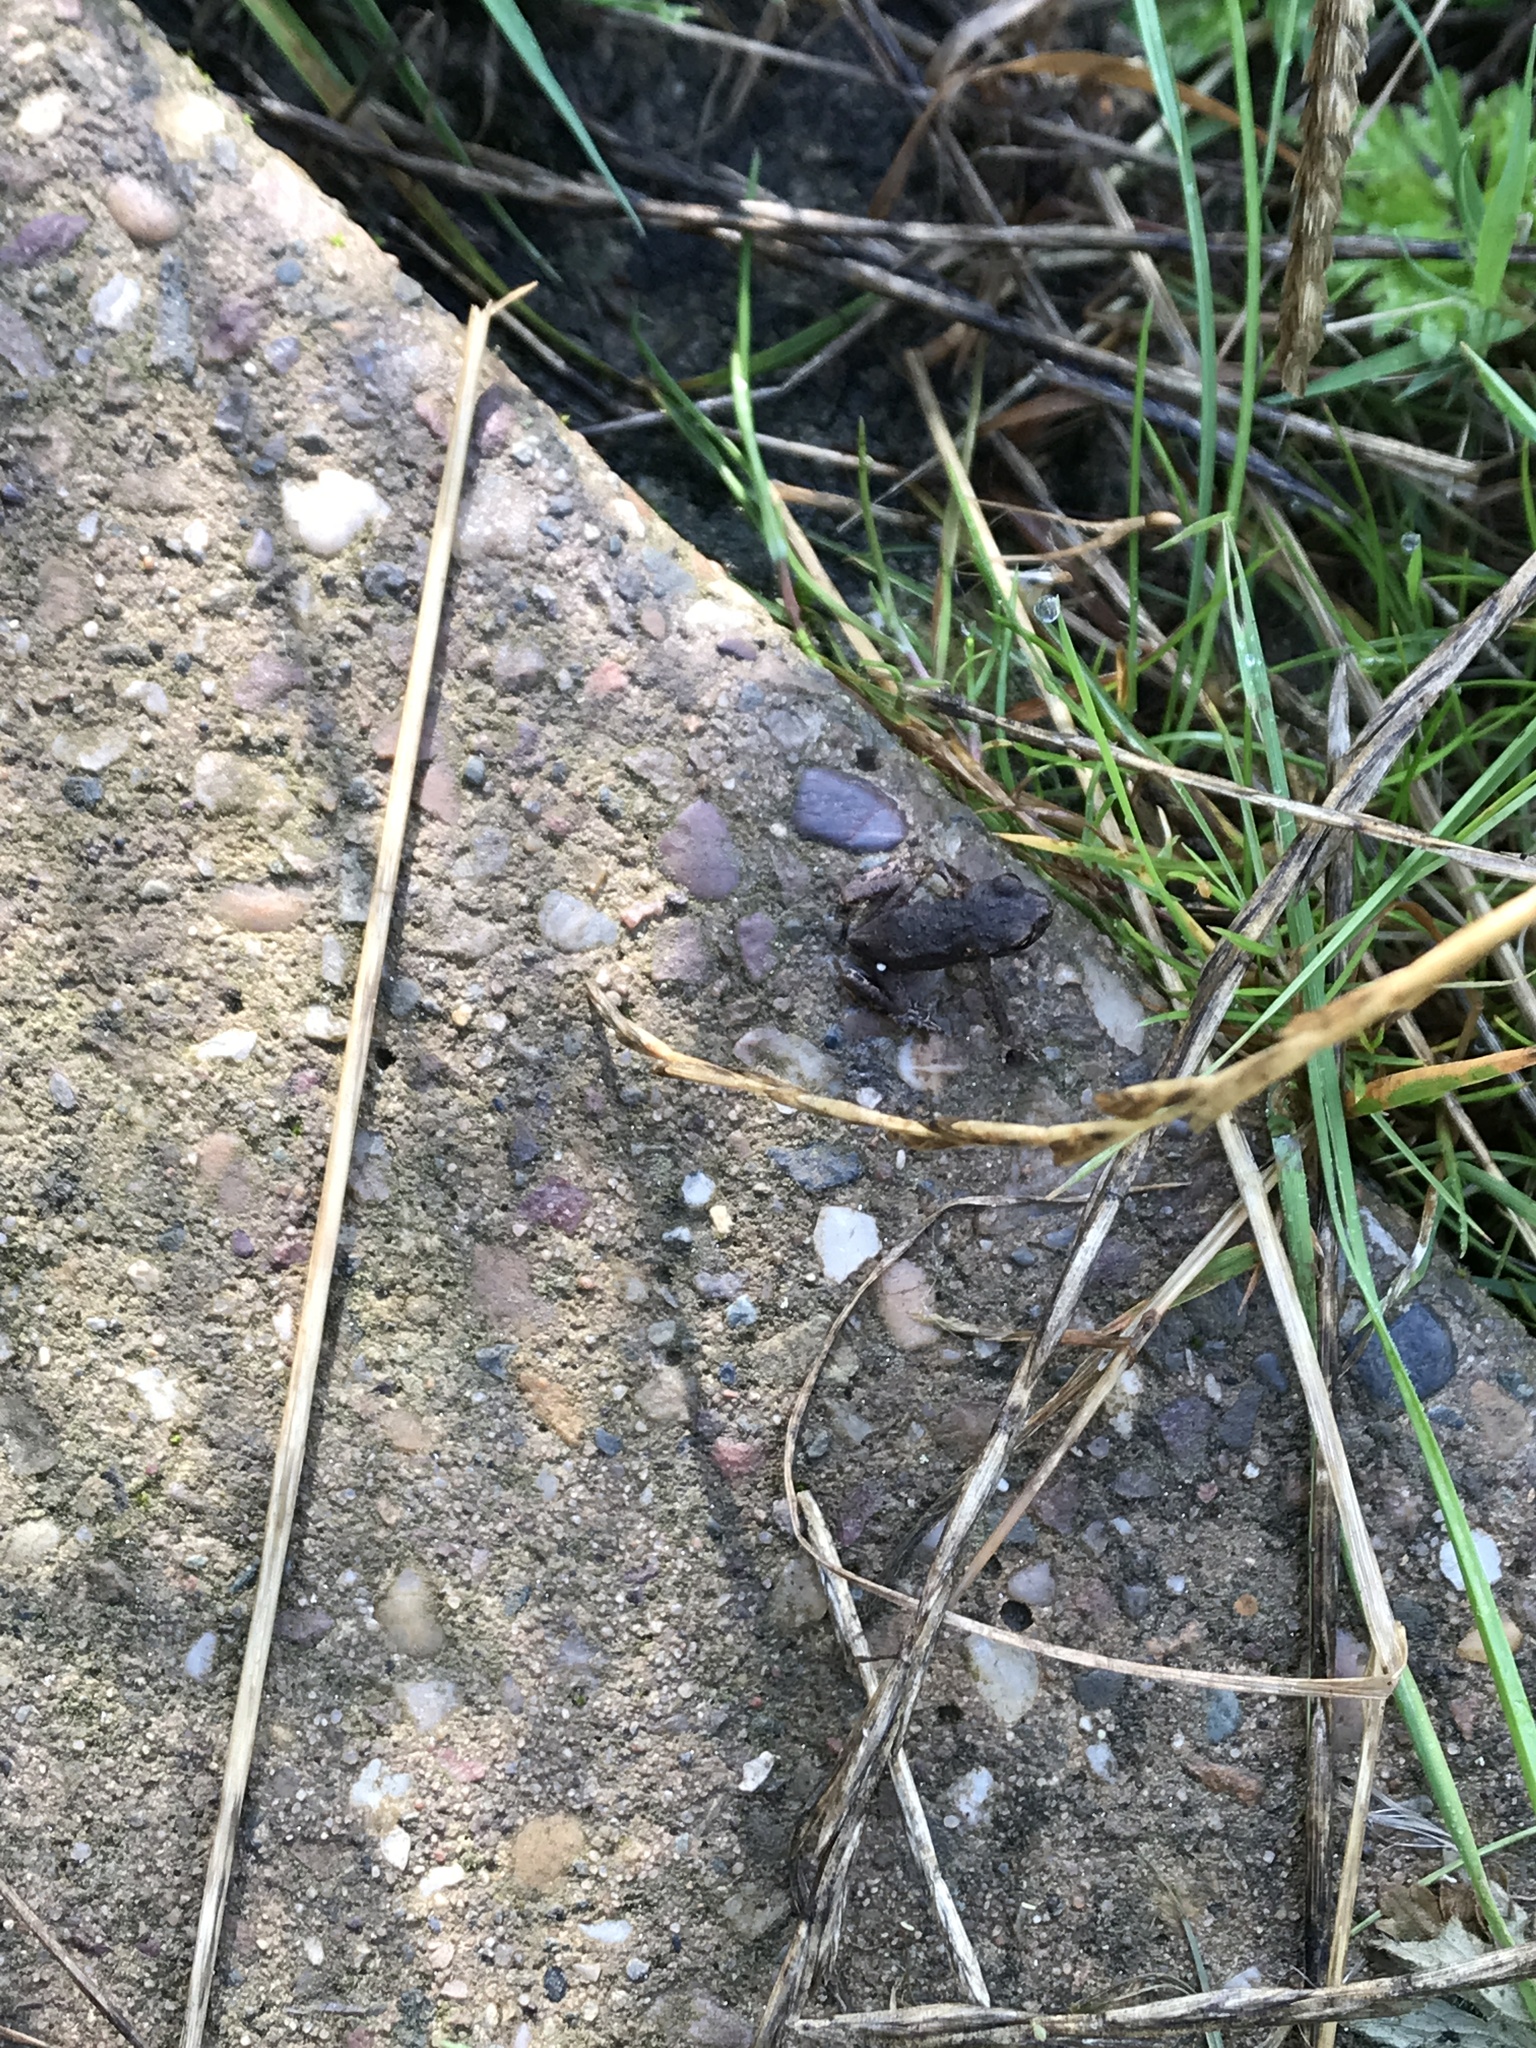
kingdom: Animalia
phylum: Chordata
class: Amphibia
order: Anura
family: Bufonidae
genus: Bufo
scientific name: Bufo bufo
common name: Common toad
